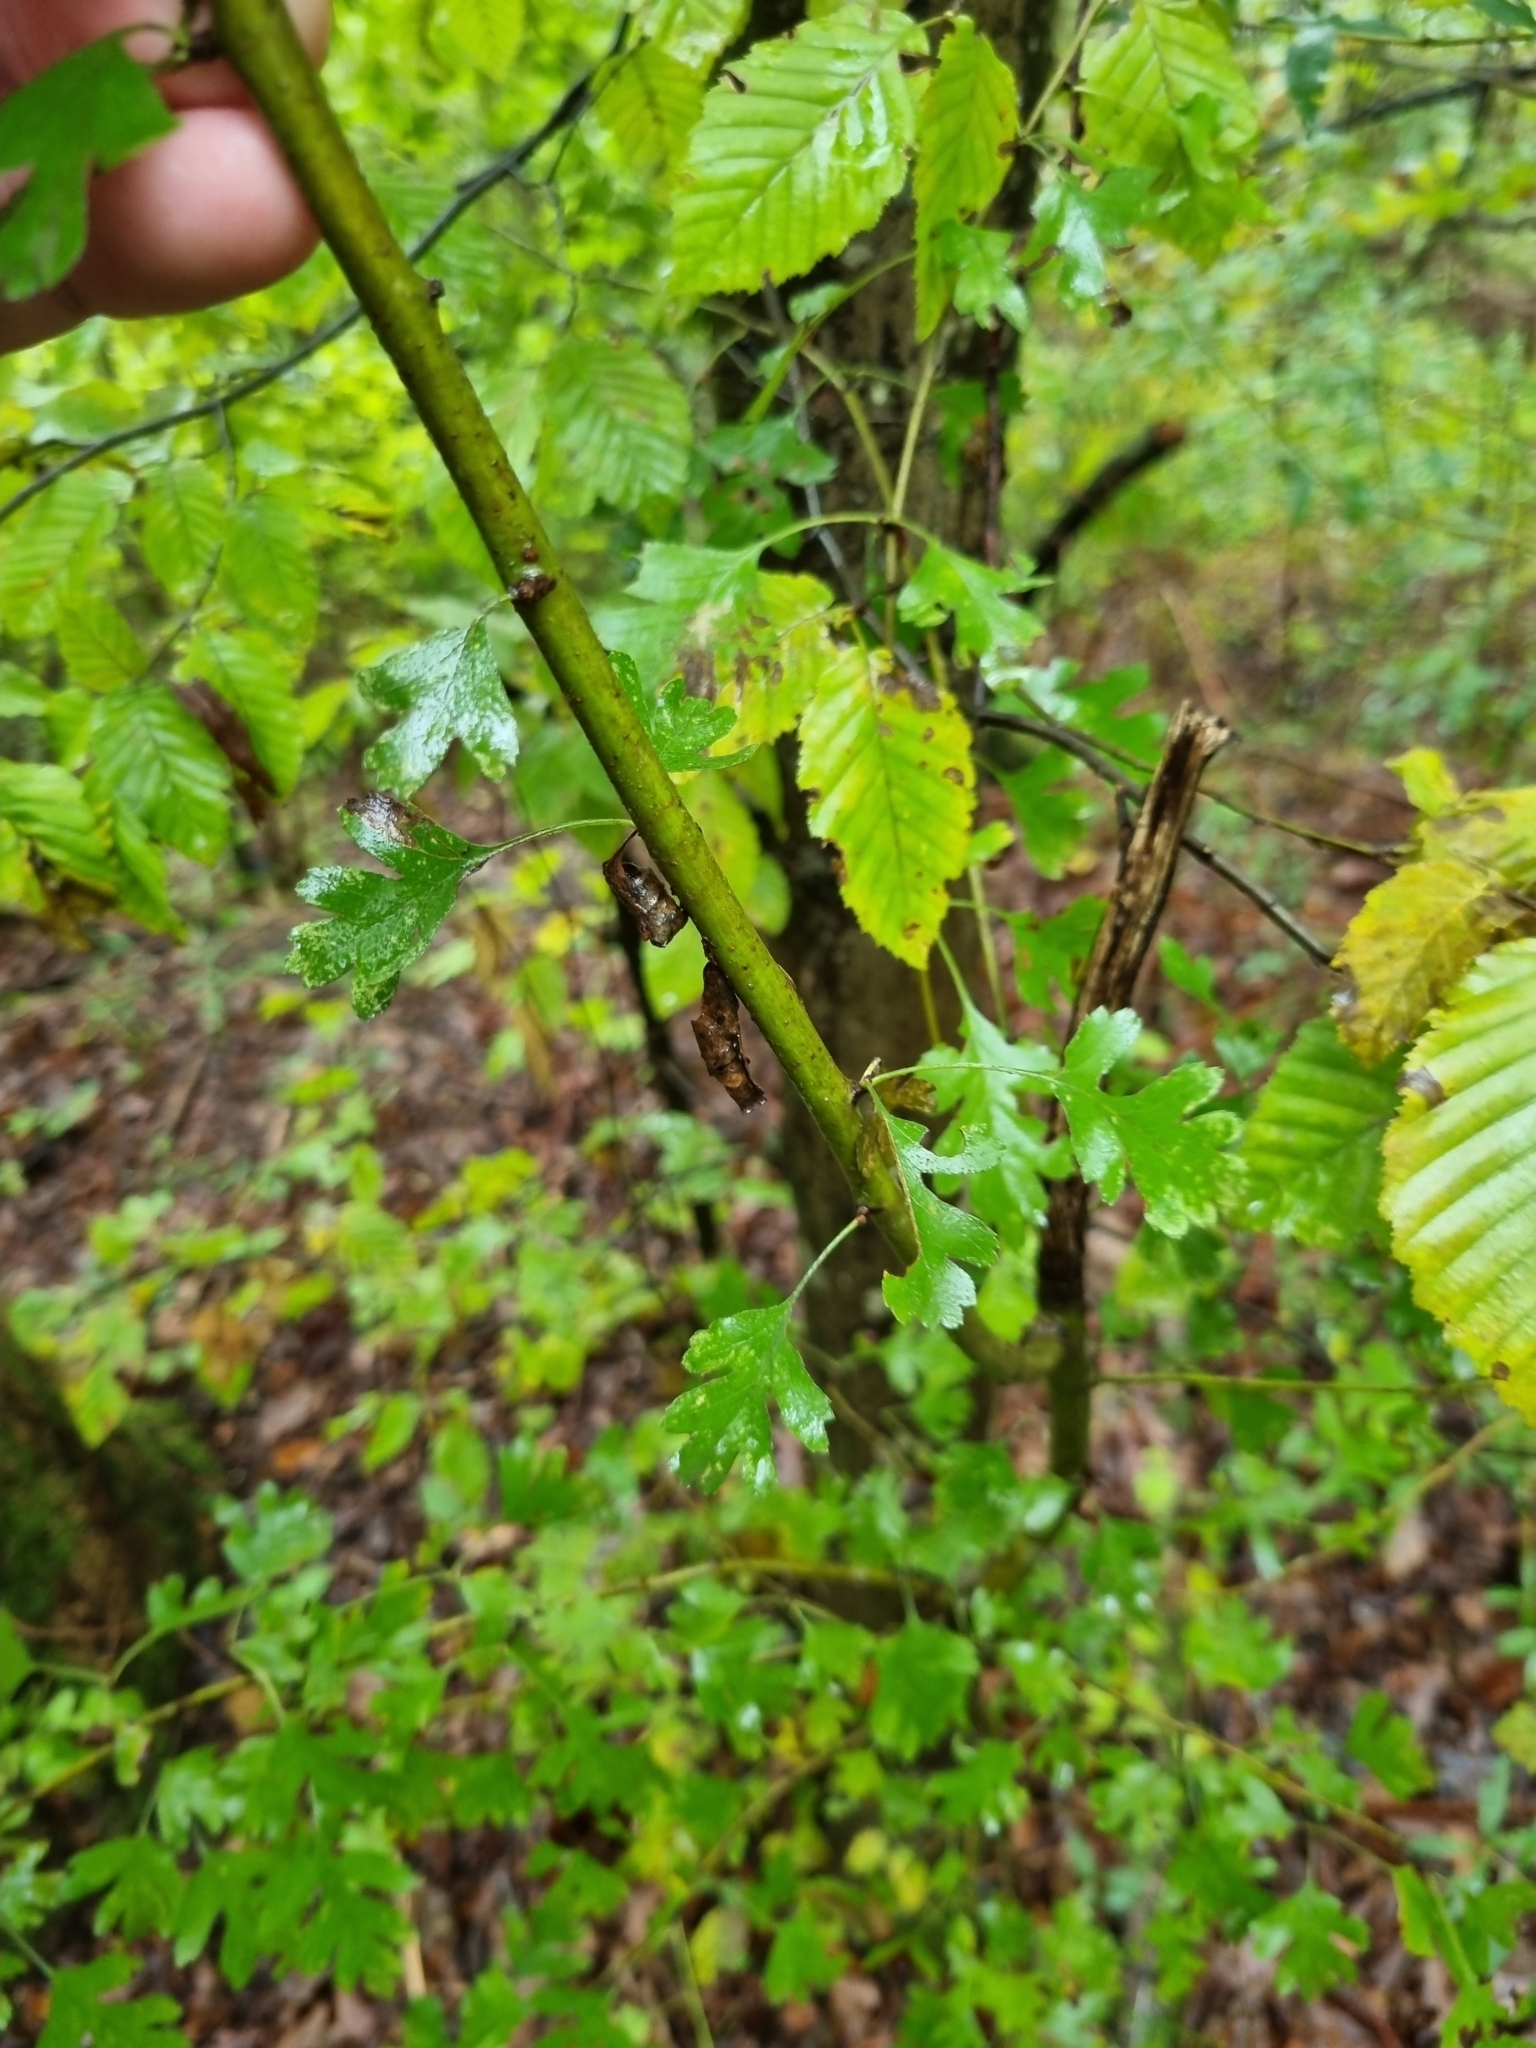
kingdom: Plantae
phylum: Tracheophyta
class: Magnoliopsida
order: Rosales
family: Rosaceae
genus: Crataegus
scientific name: Crataegus monogyna
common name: Hawthorn
